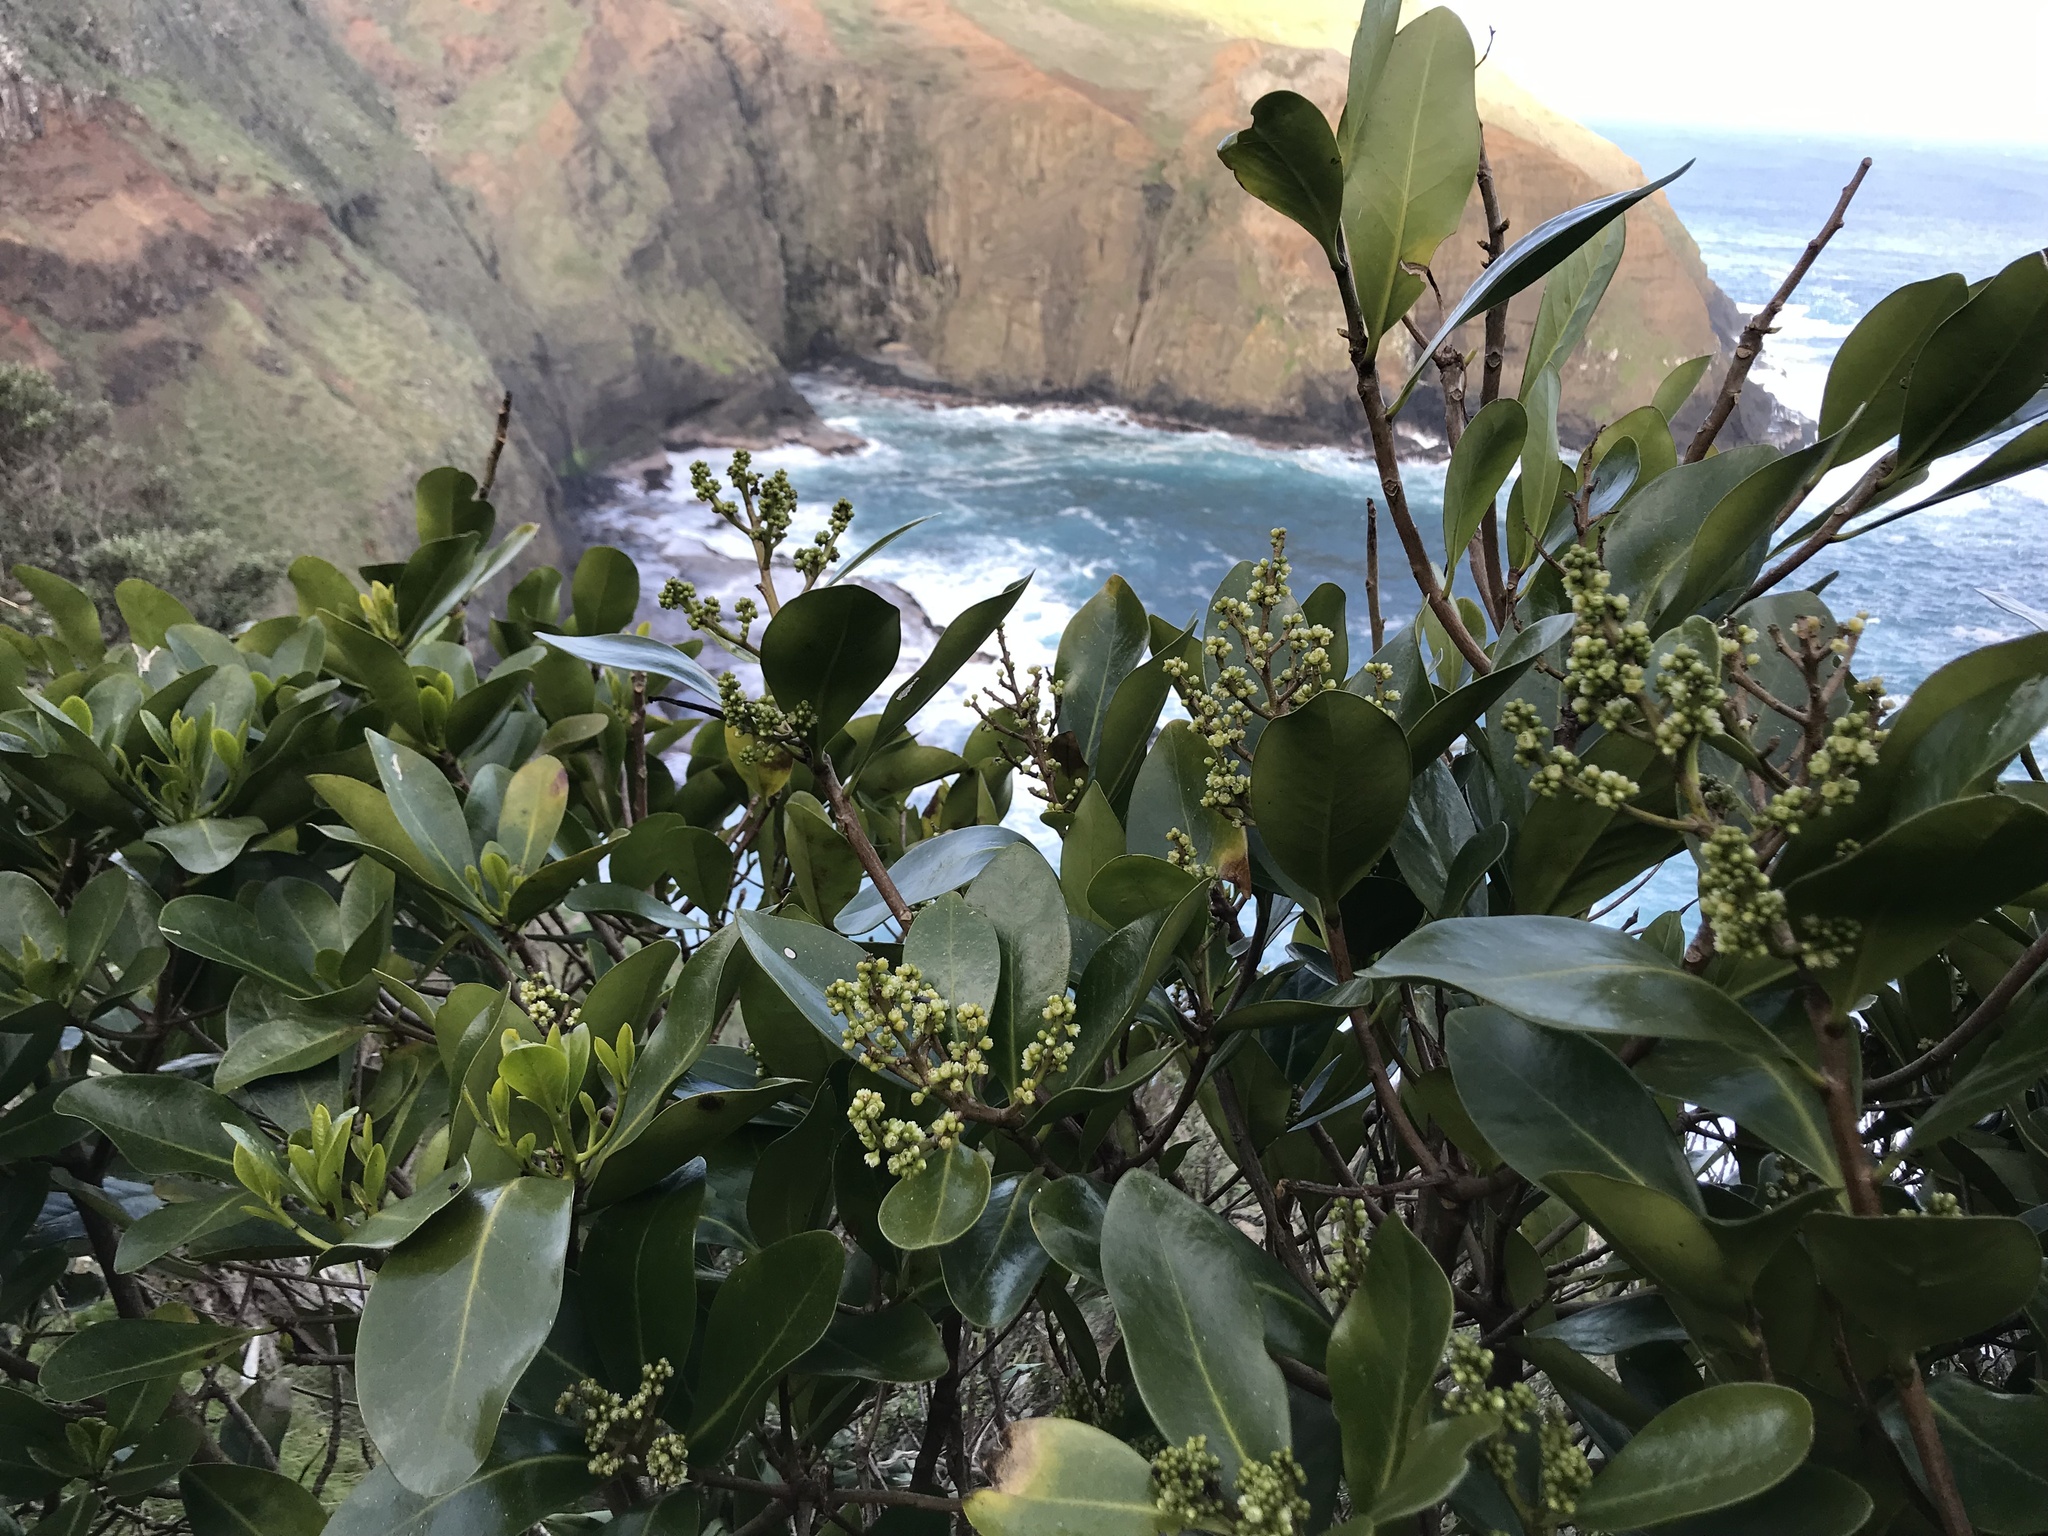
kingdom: Plantae
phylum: Tracheophyta
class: Magnoliopsida
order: Cucurbitales
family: Corynocarpaceae
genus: Corynocarpus
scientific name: Corynocarpus laevigatus
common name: New zealand laurel
